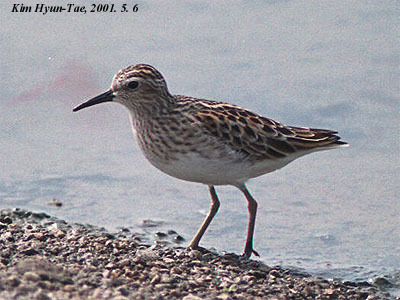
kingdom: Animalia
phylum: Chordata
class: Aves
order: Charadriiformes
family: Scolopacidae
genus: Calidris
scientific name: Calidris subminuta
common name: Long-toed stint
